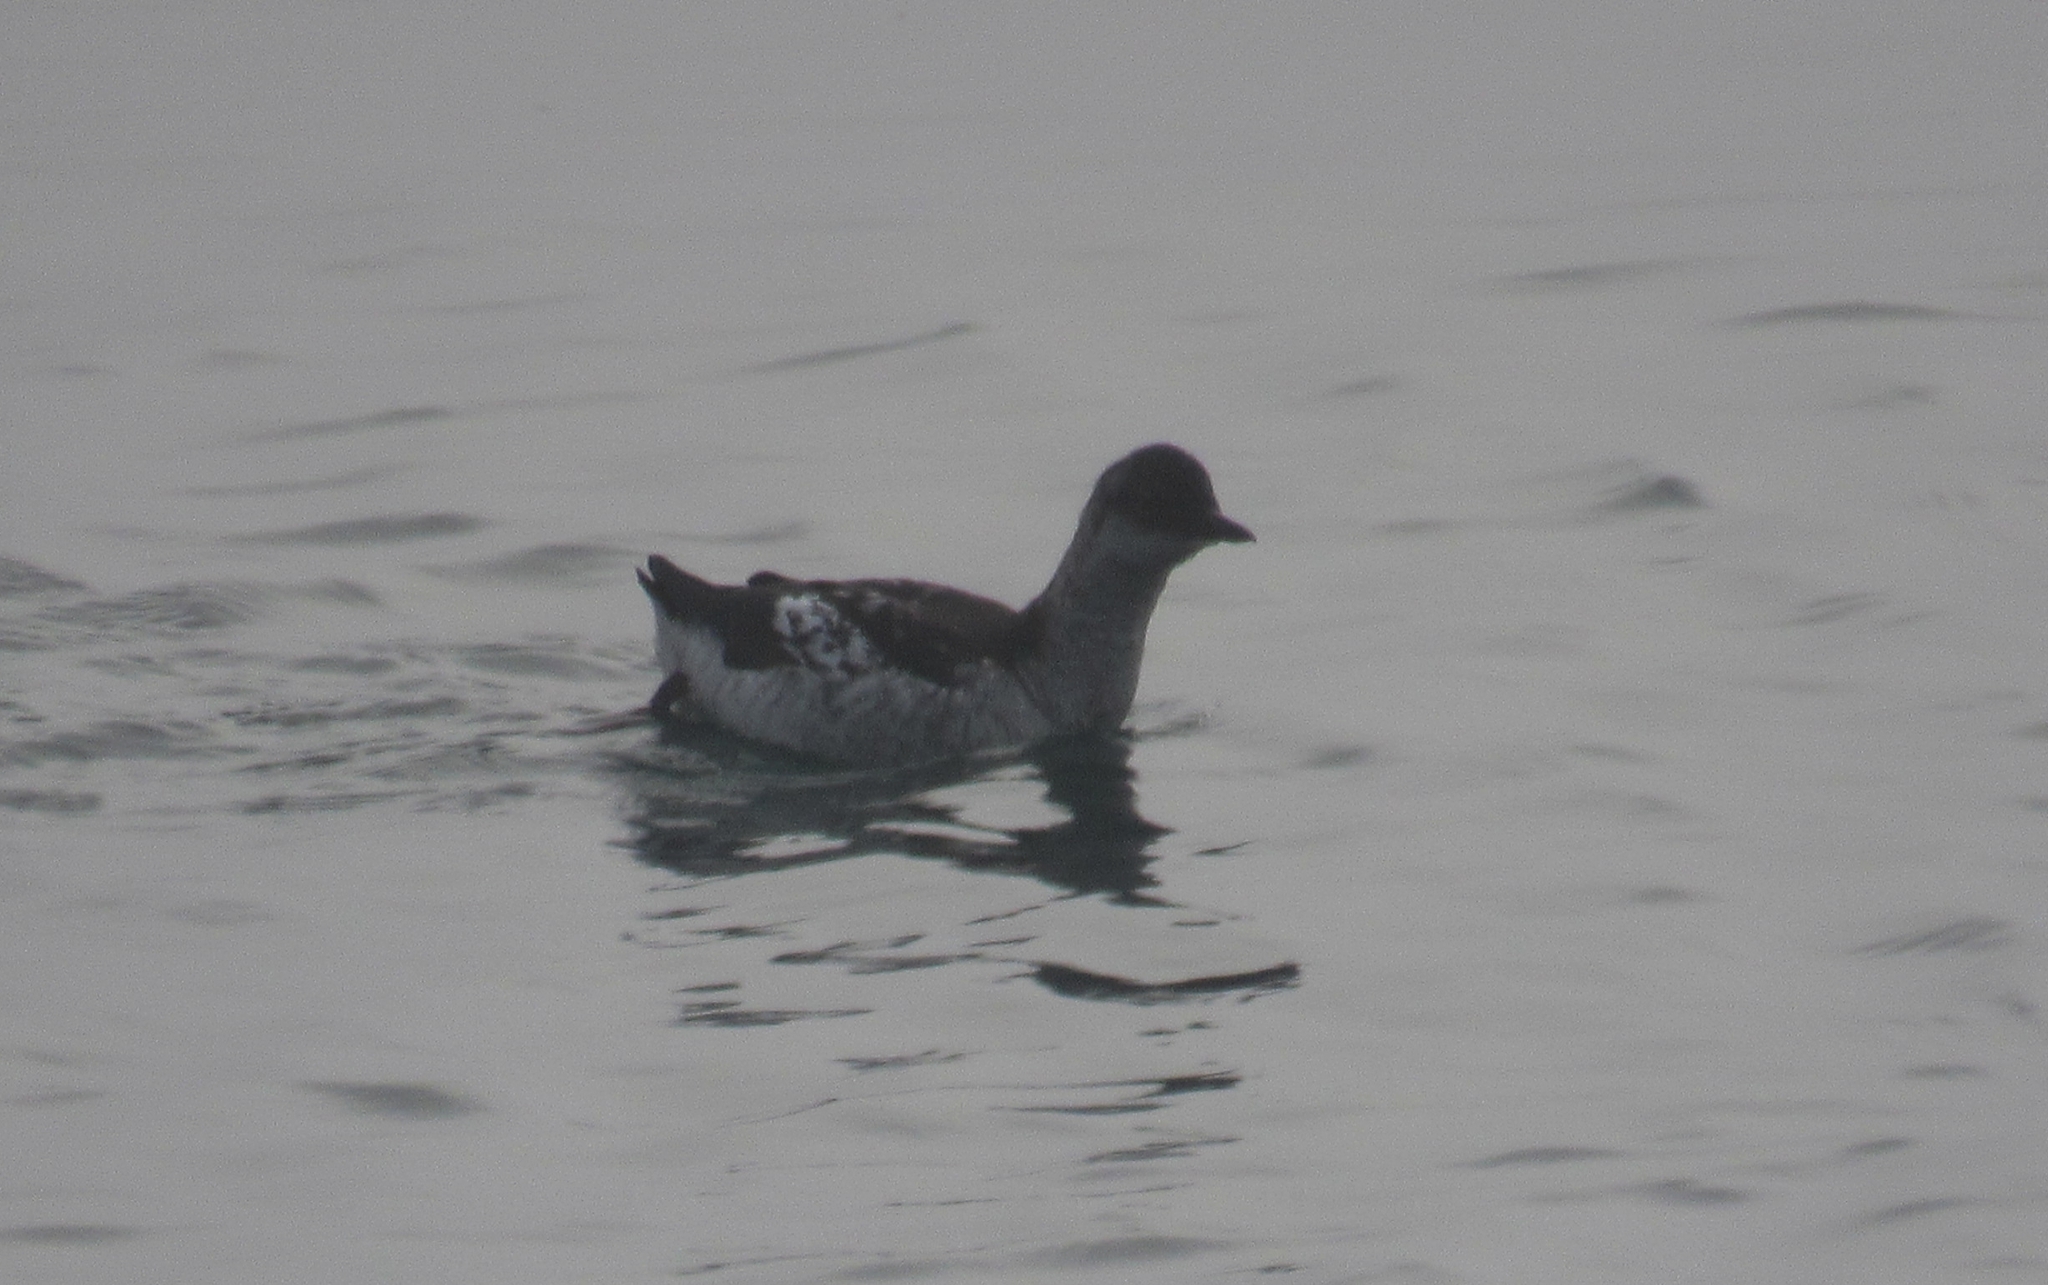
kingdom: Animalia
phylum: Chordata
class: Aves
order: Charadriiformes
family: Alcidae
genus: Cepphus
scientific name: Cepphus columba
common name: Pigeon guillemot
